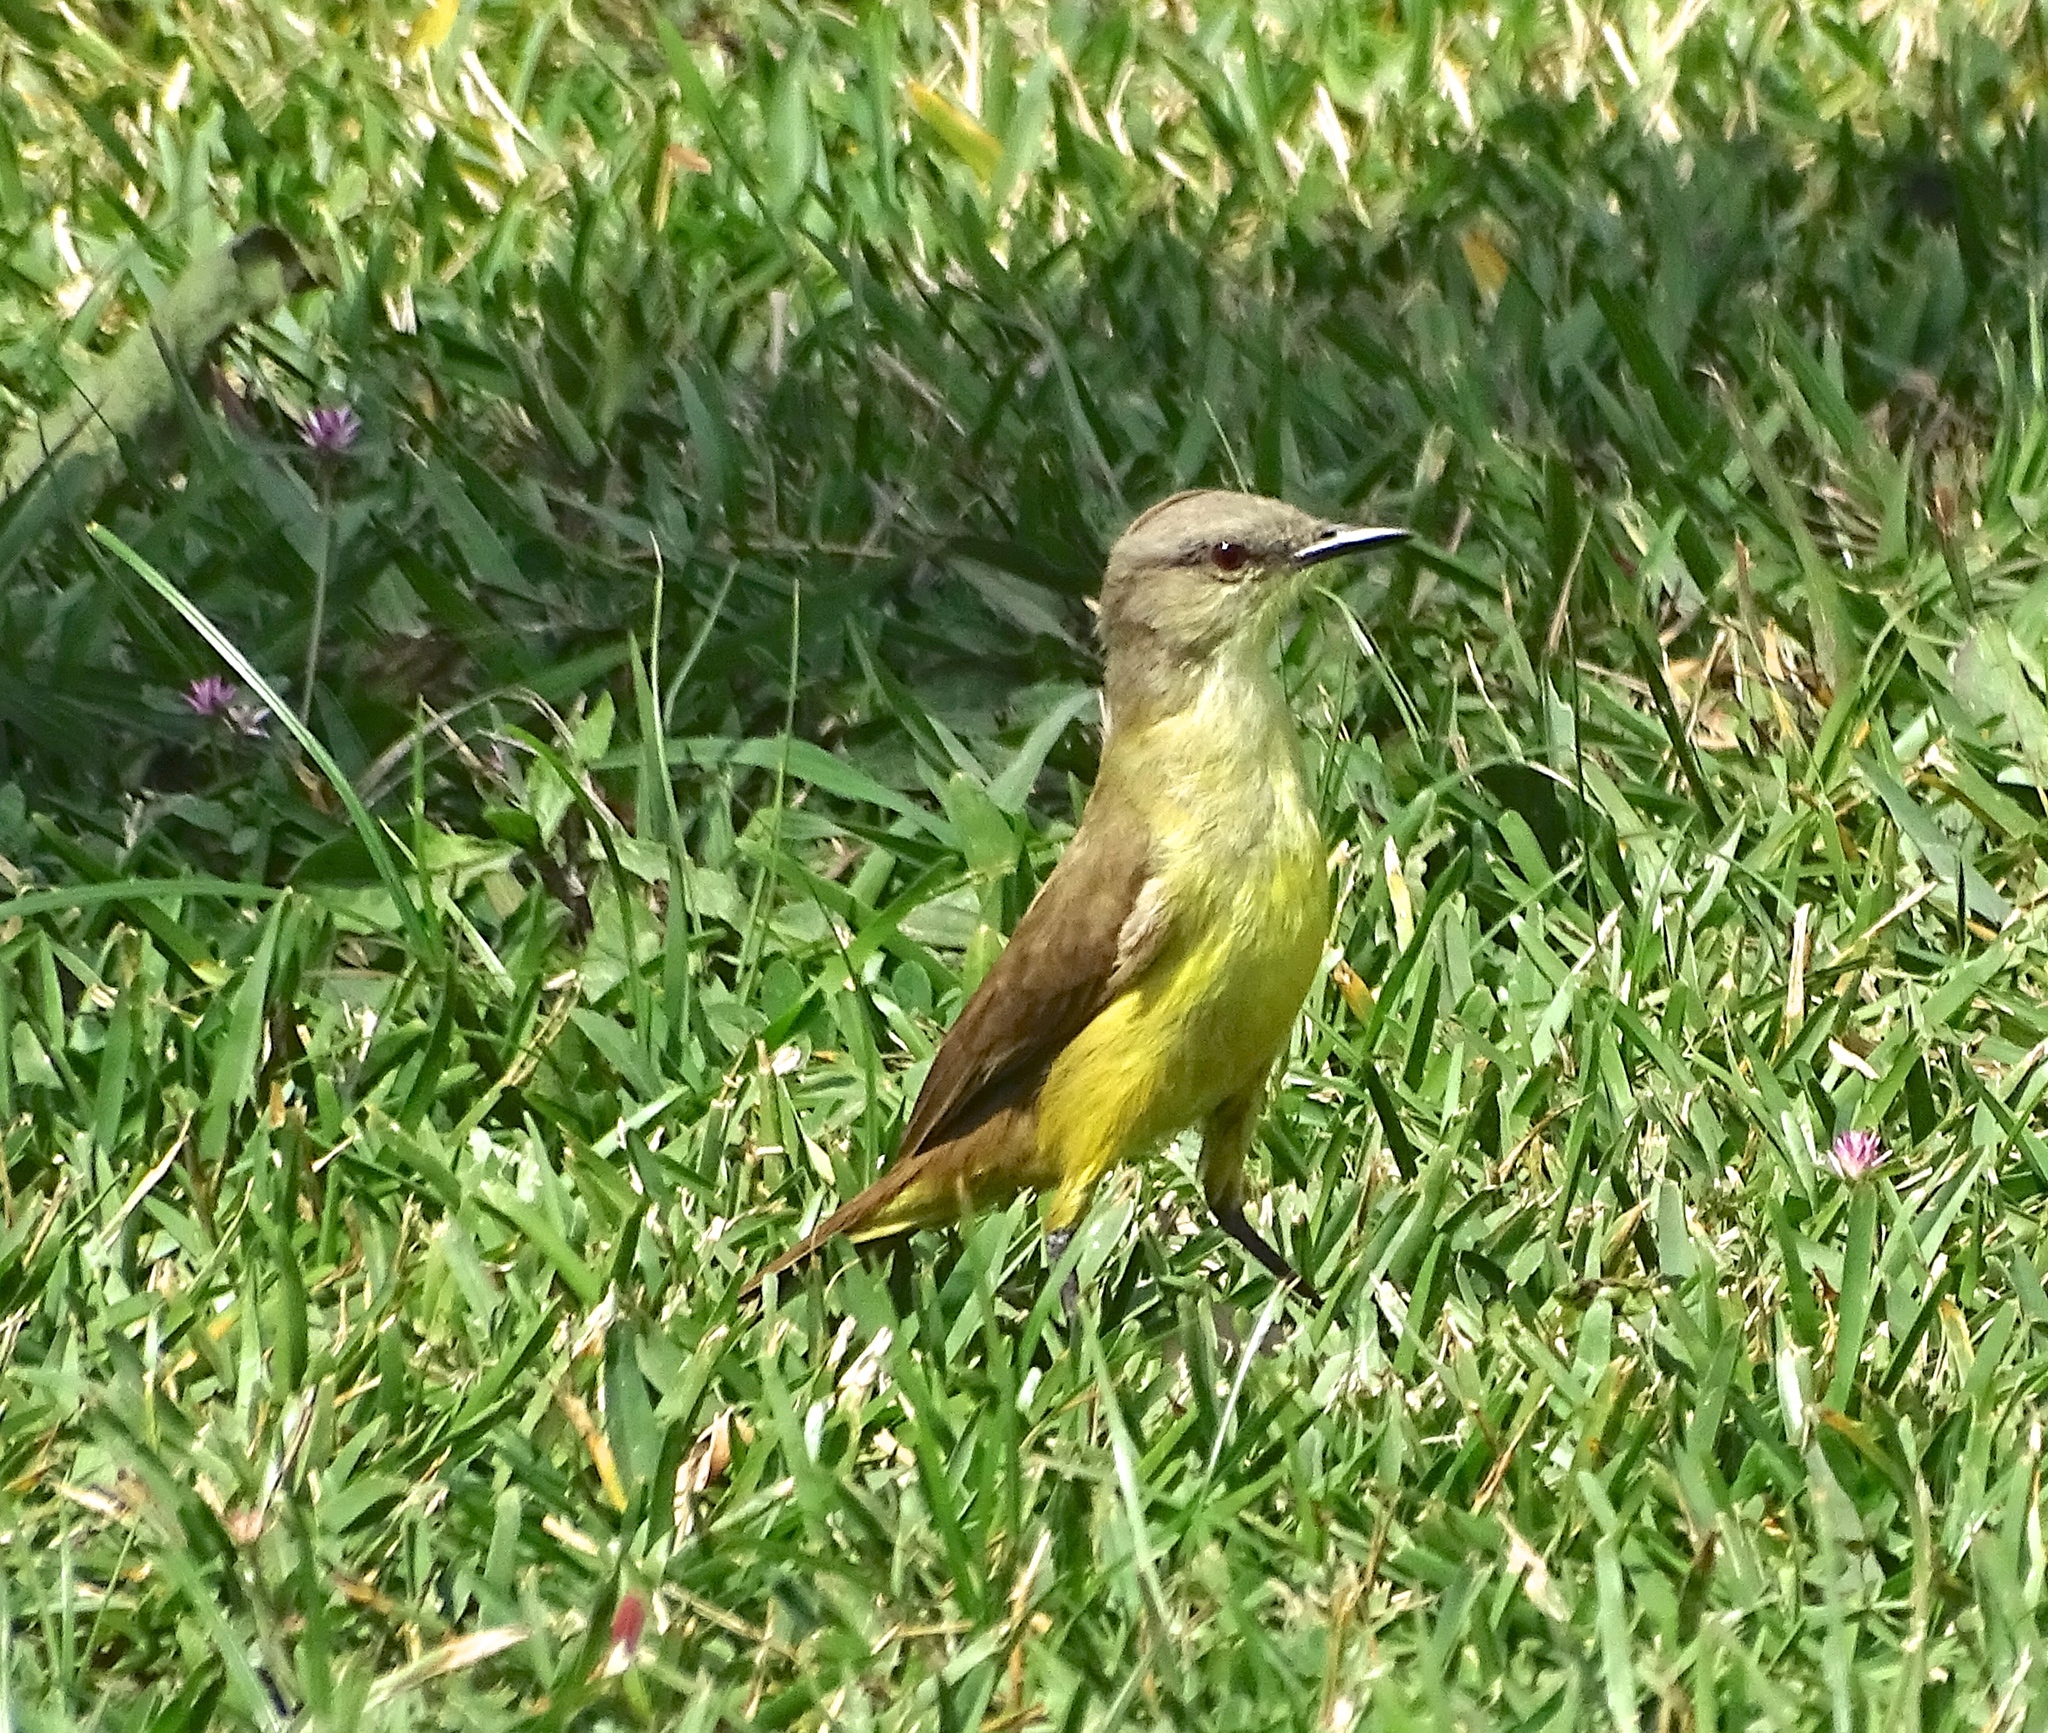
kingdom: Animalia
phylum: Chordata
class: Aves
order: Passeriformes
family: Tyrannidae
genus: Machetornis
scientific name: Machetornis rixosa
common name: Cattle tyrant
